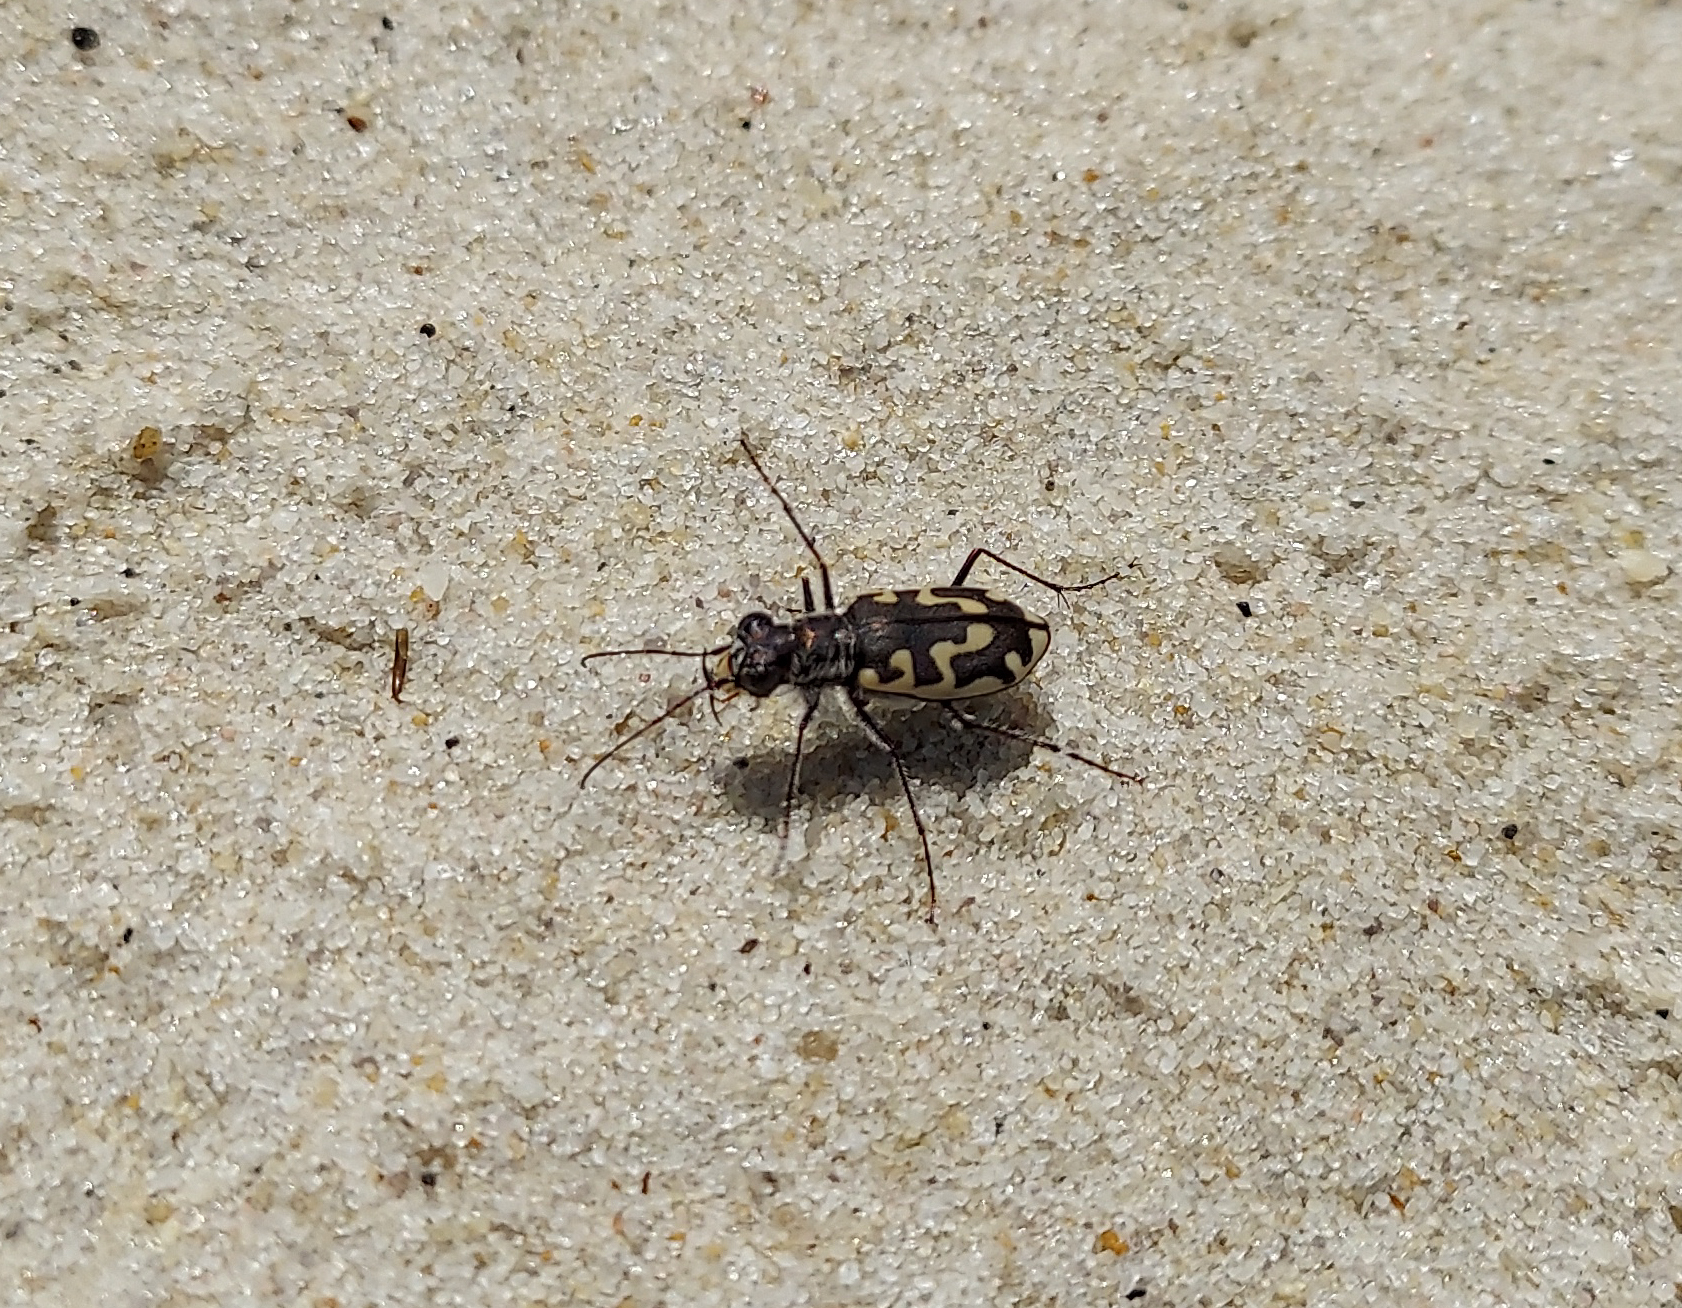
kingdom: Animalia
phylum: Arthropoda
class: Insecta
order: Coleoptera
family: Carabidae
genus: Cicindela
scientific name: Cicindela hirticollis
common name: Hairy-necked tiger beetle
